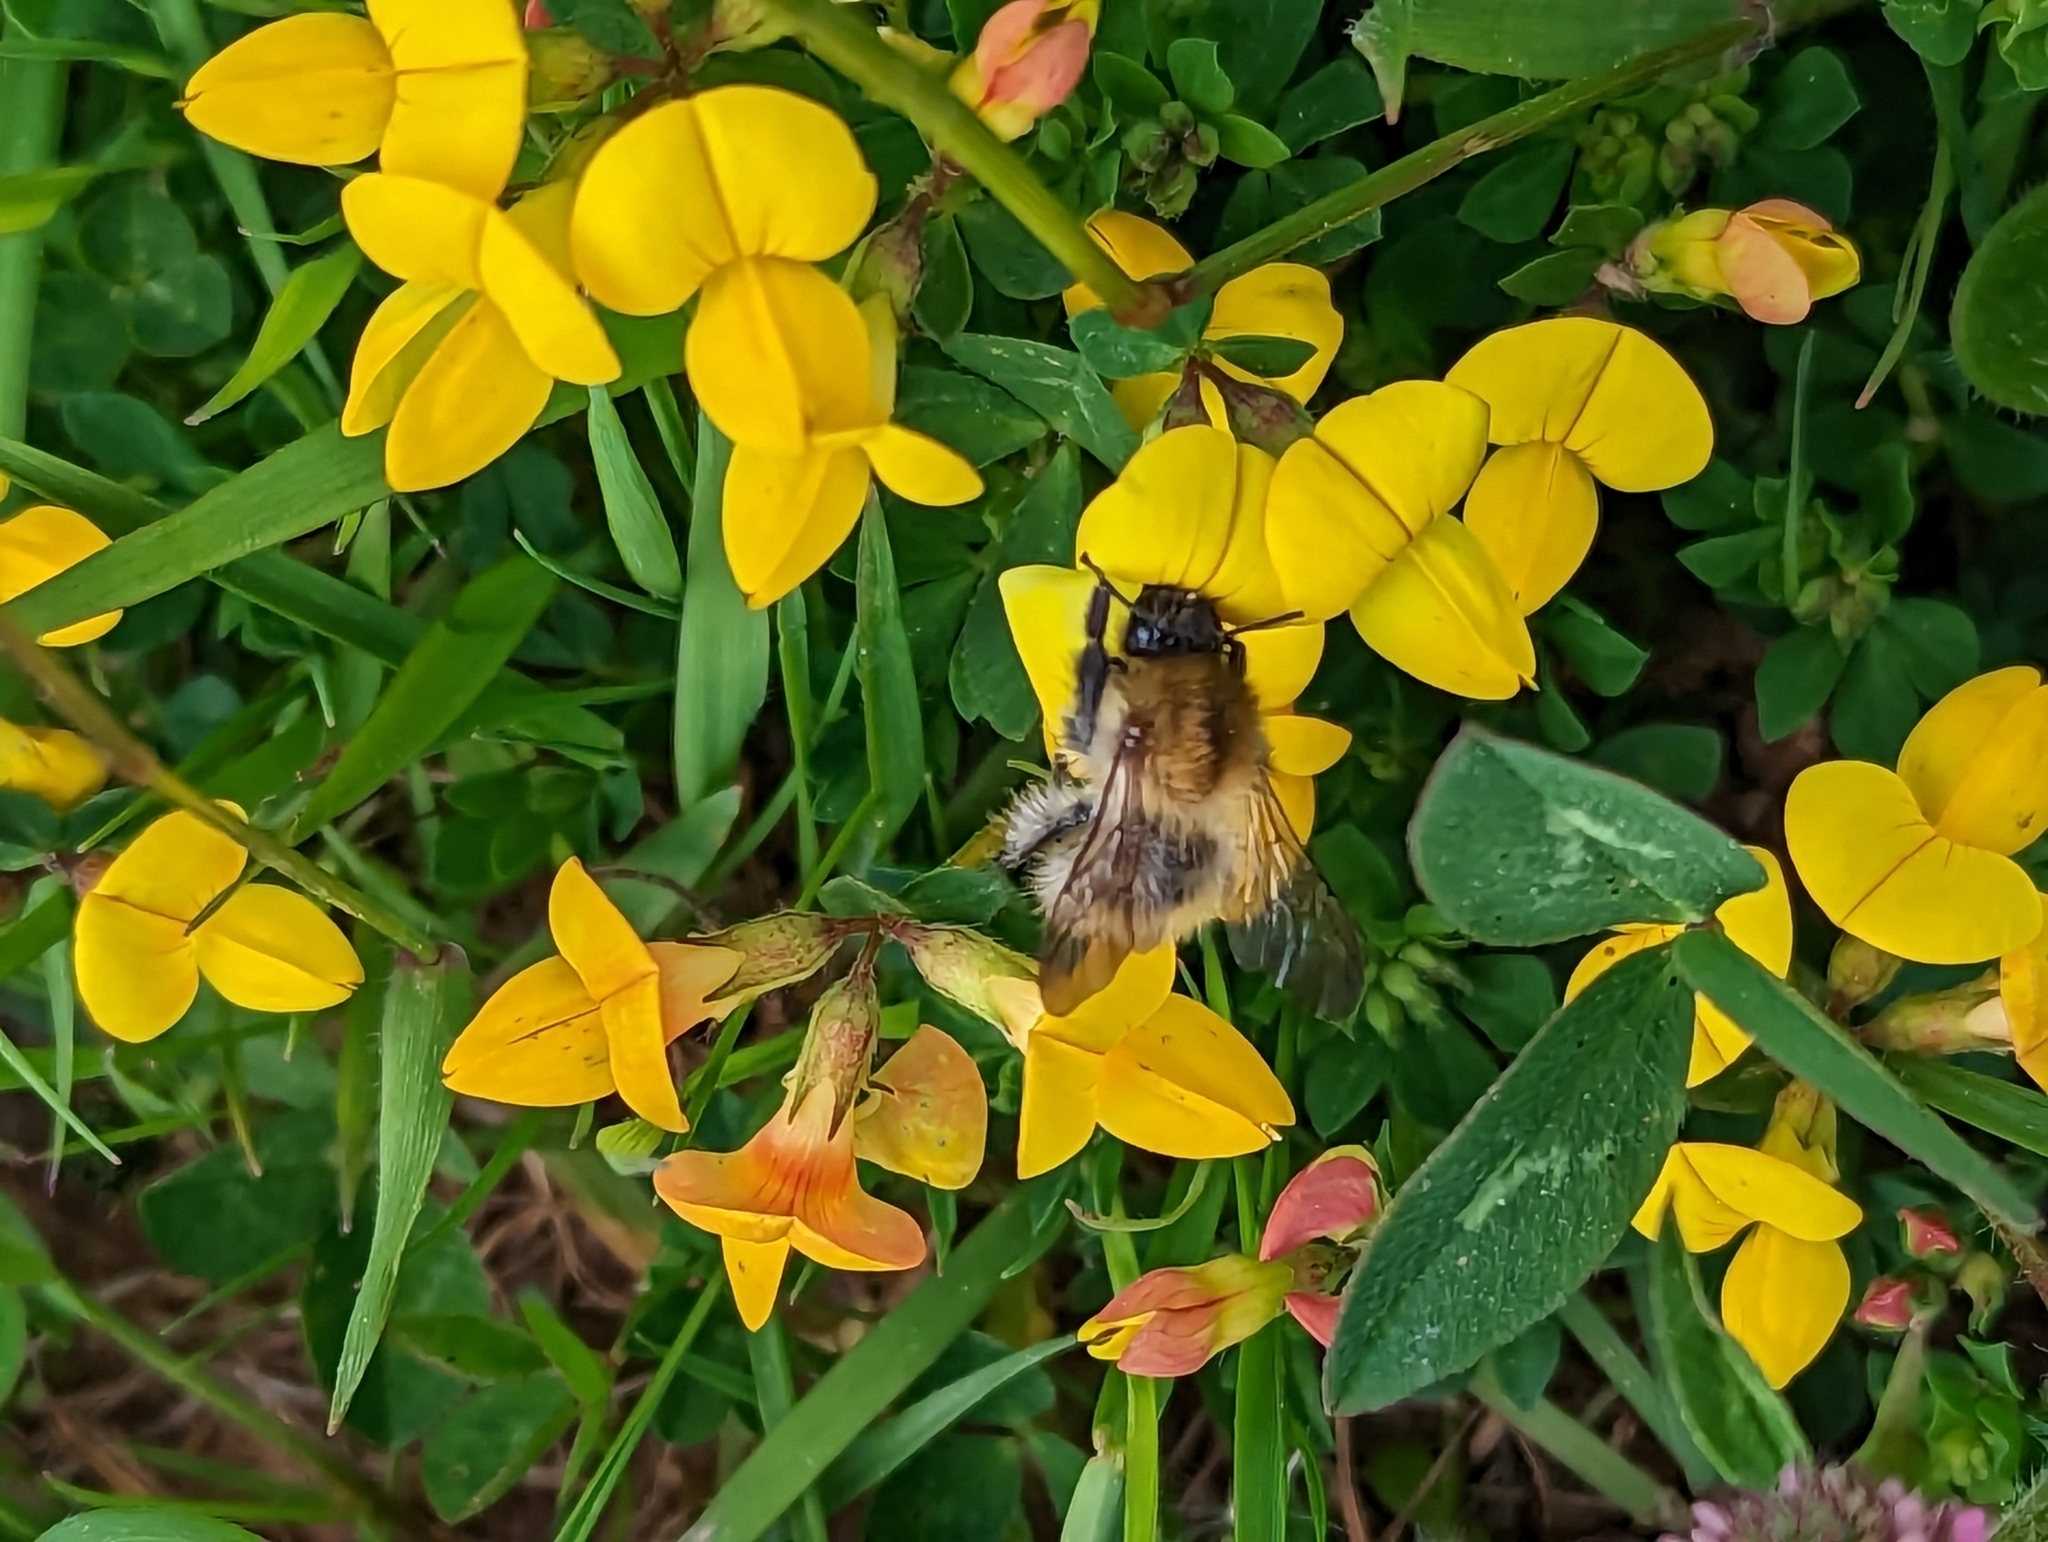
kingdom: Animalia
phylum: Arthropoda
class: Insecta
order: Hymenoptera
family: Apidae
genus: Bombus
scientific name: Bombus pascuorum
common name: Common carder bee
